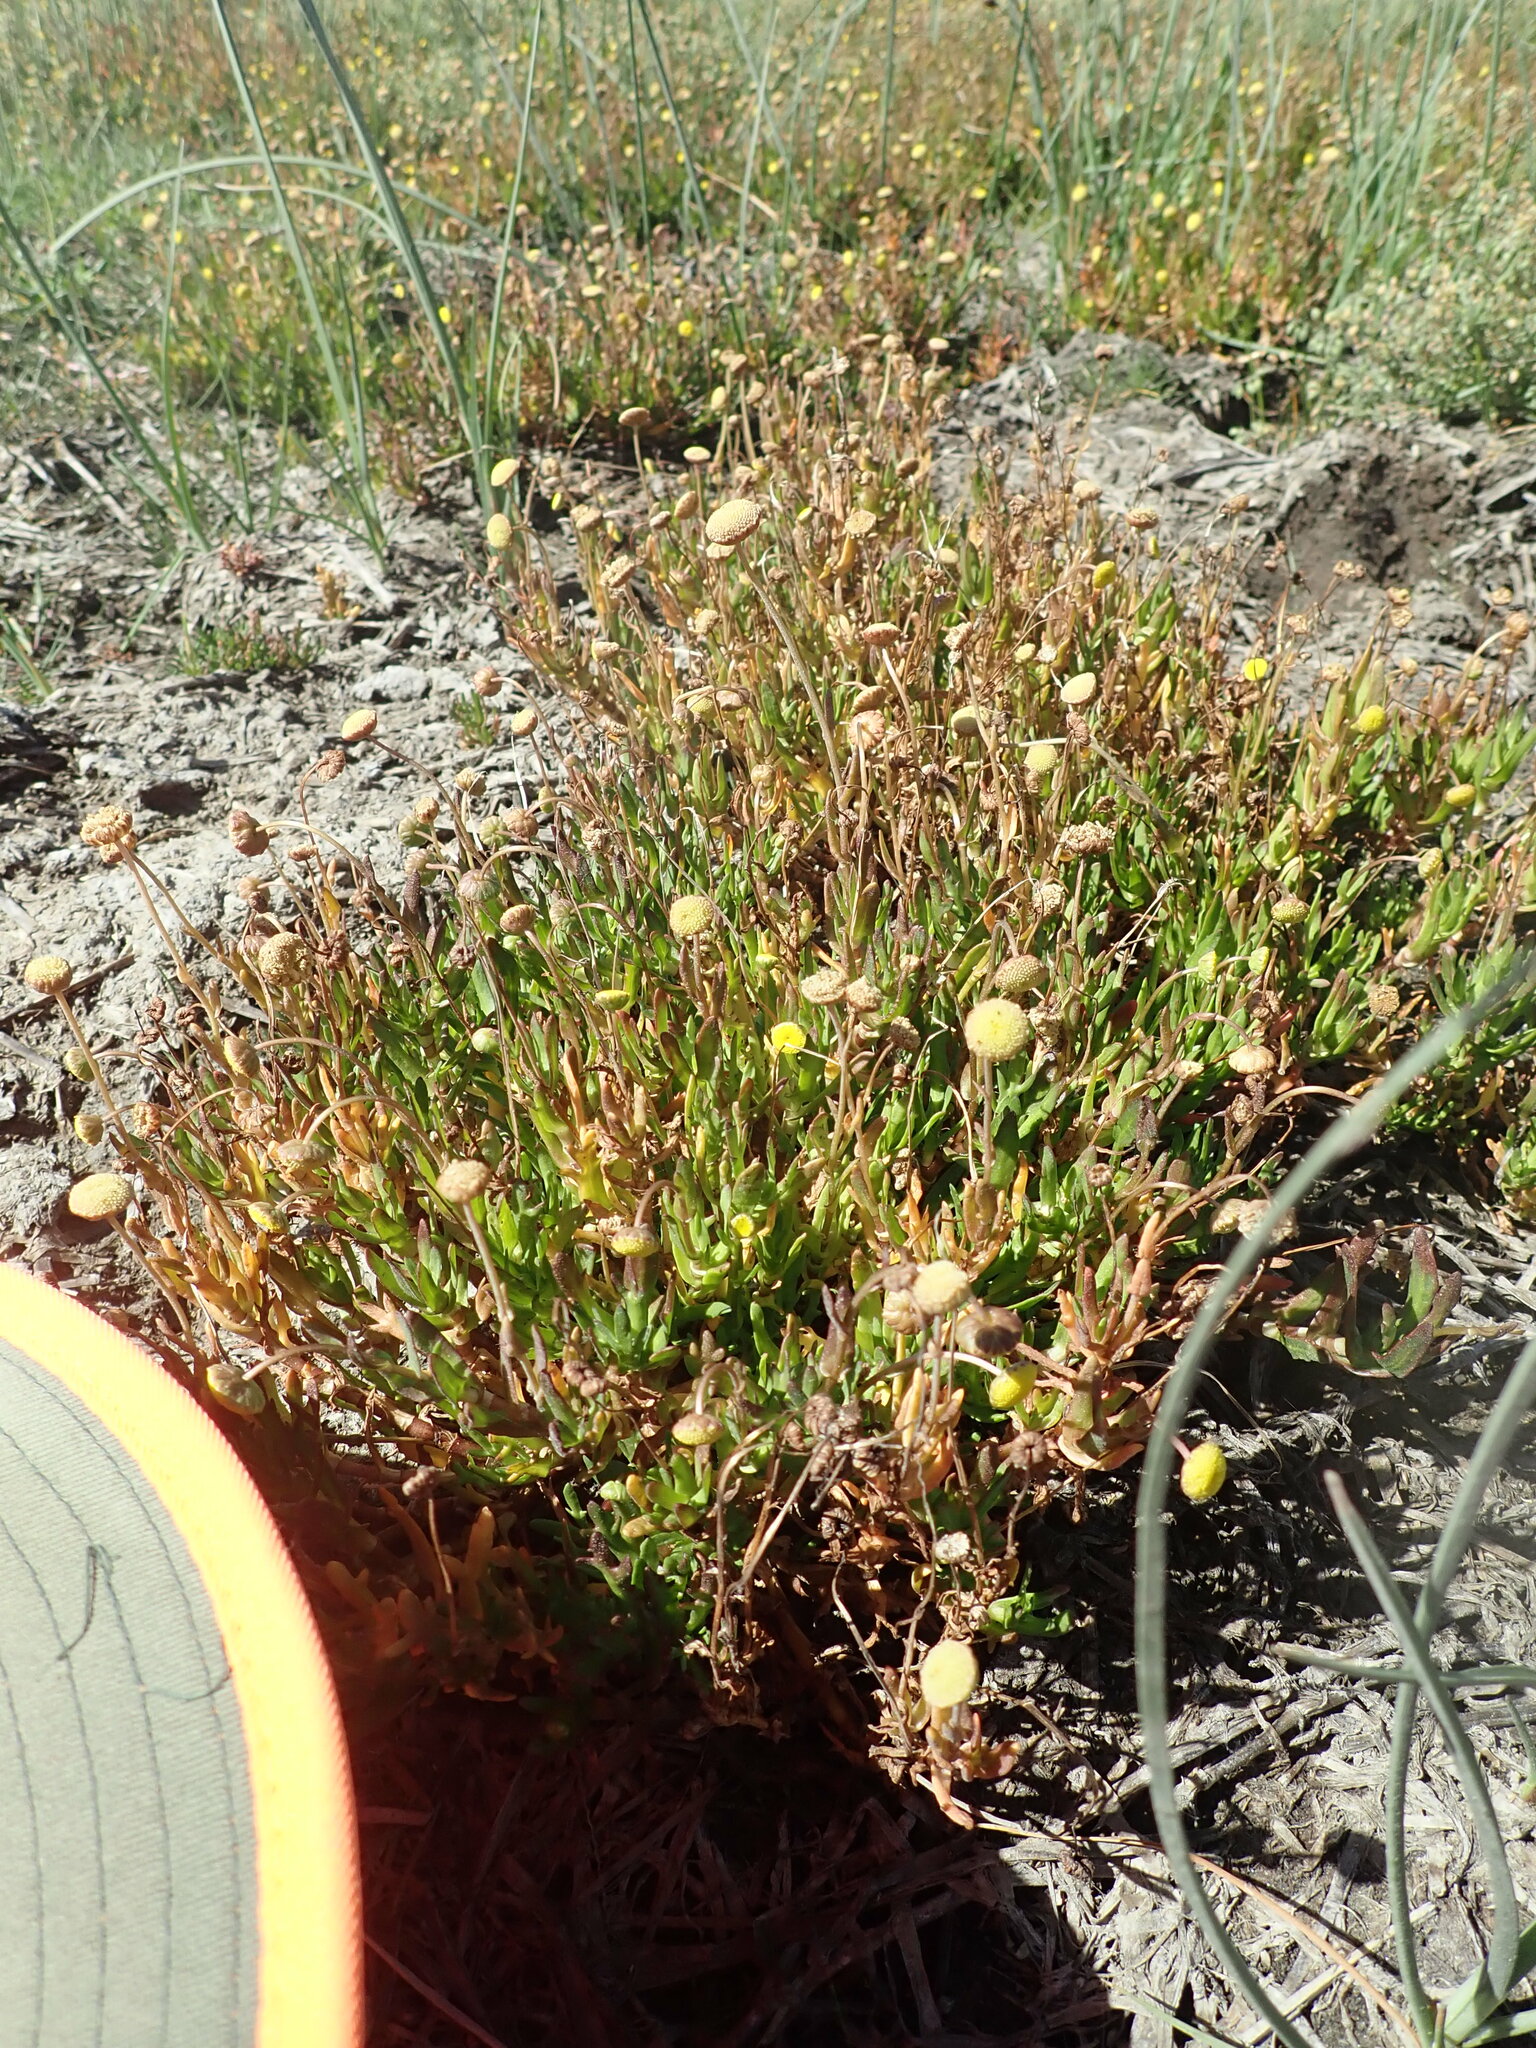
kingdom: Plantae
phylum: Tracheophyta
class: Magnoliopsida
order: Asterales
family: Asteraceae
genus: Cotula
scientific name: Cotula coronopifolia
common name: Buttonweed
